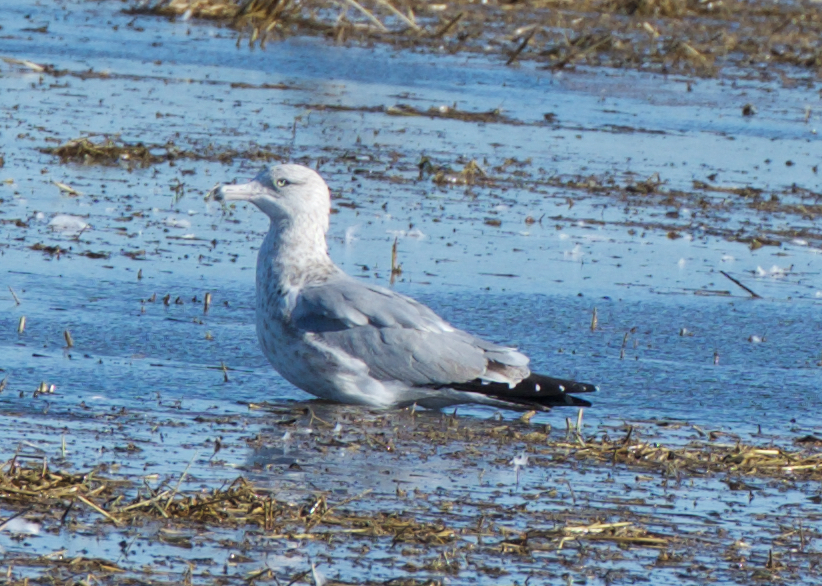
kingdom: Animalia
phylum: Chordata
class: Aves
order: Charadriiformes
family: Laridae
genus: Larus
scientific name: Larus argentatus
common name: Herring gull
